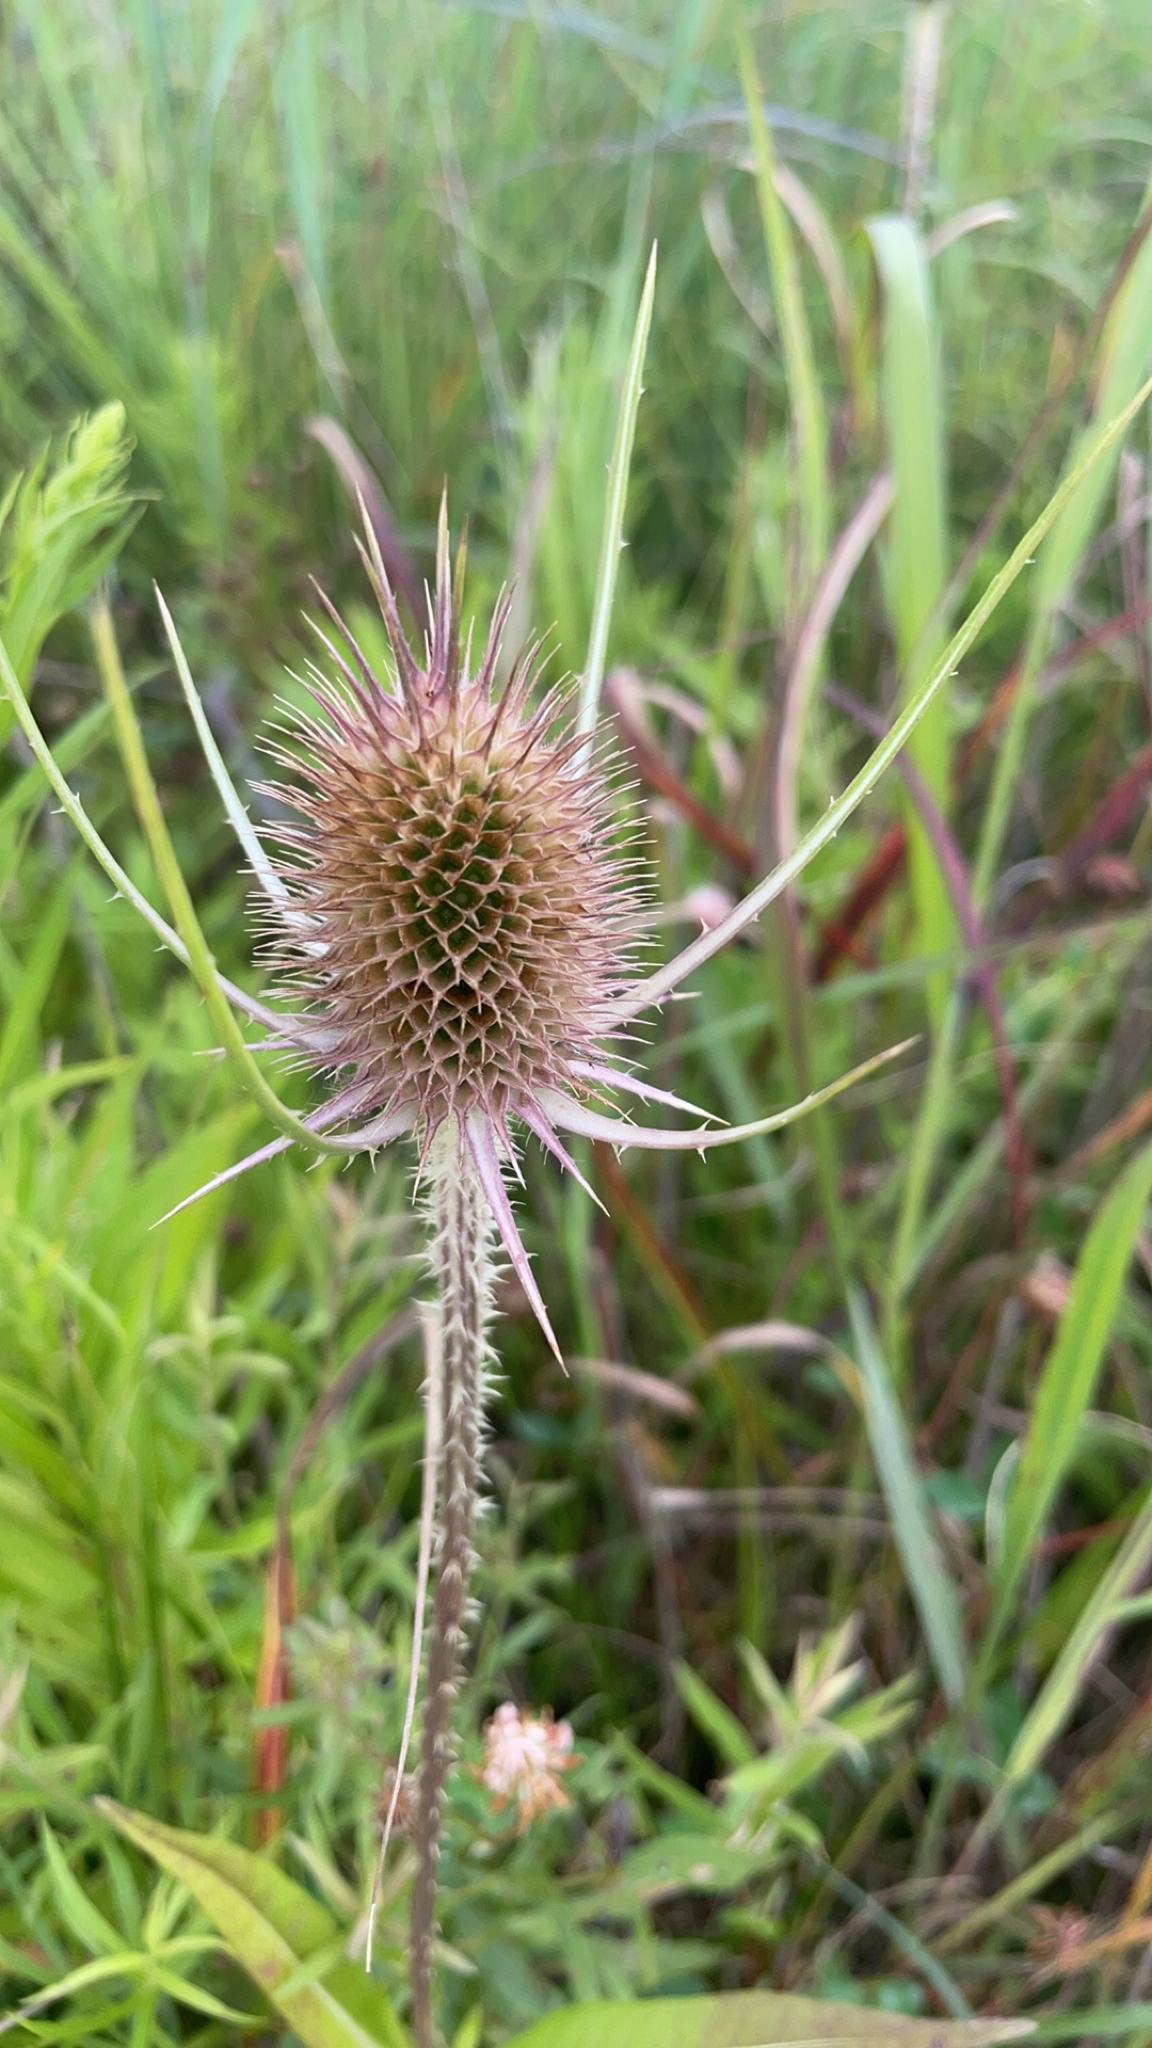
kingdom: Plantae
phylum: Tracheophyta
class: Magnoliopsida
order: Dipsacales
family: Caprifoliaceae
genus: Dipsacus
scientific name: Dipsacus fullonum
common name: Teasel
